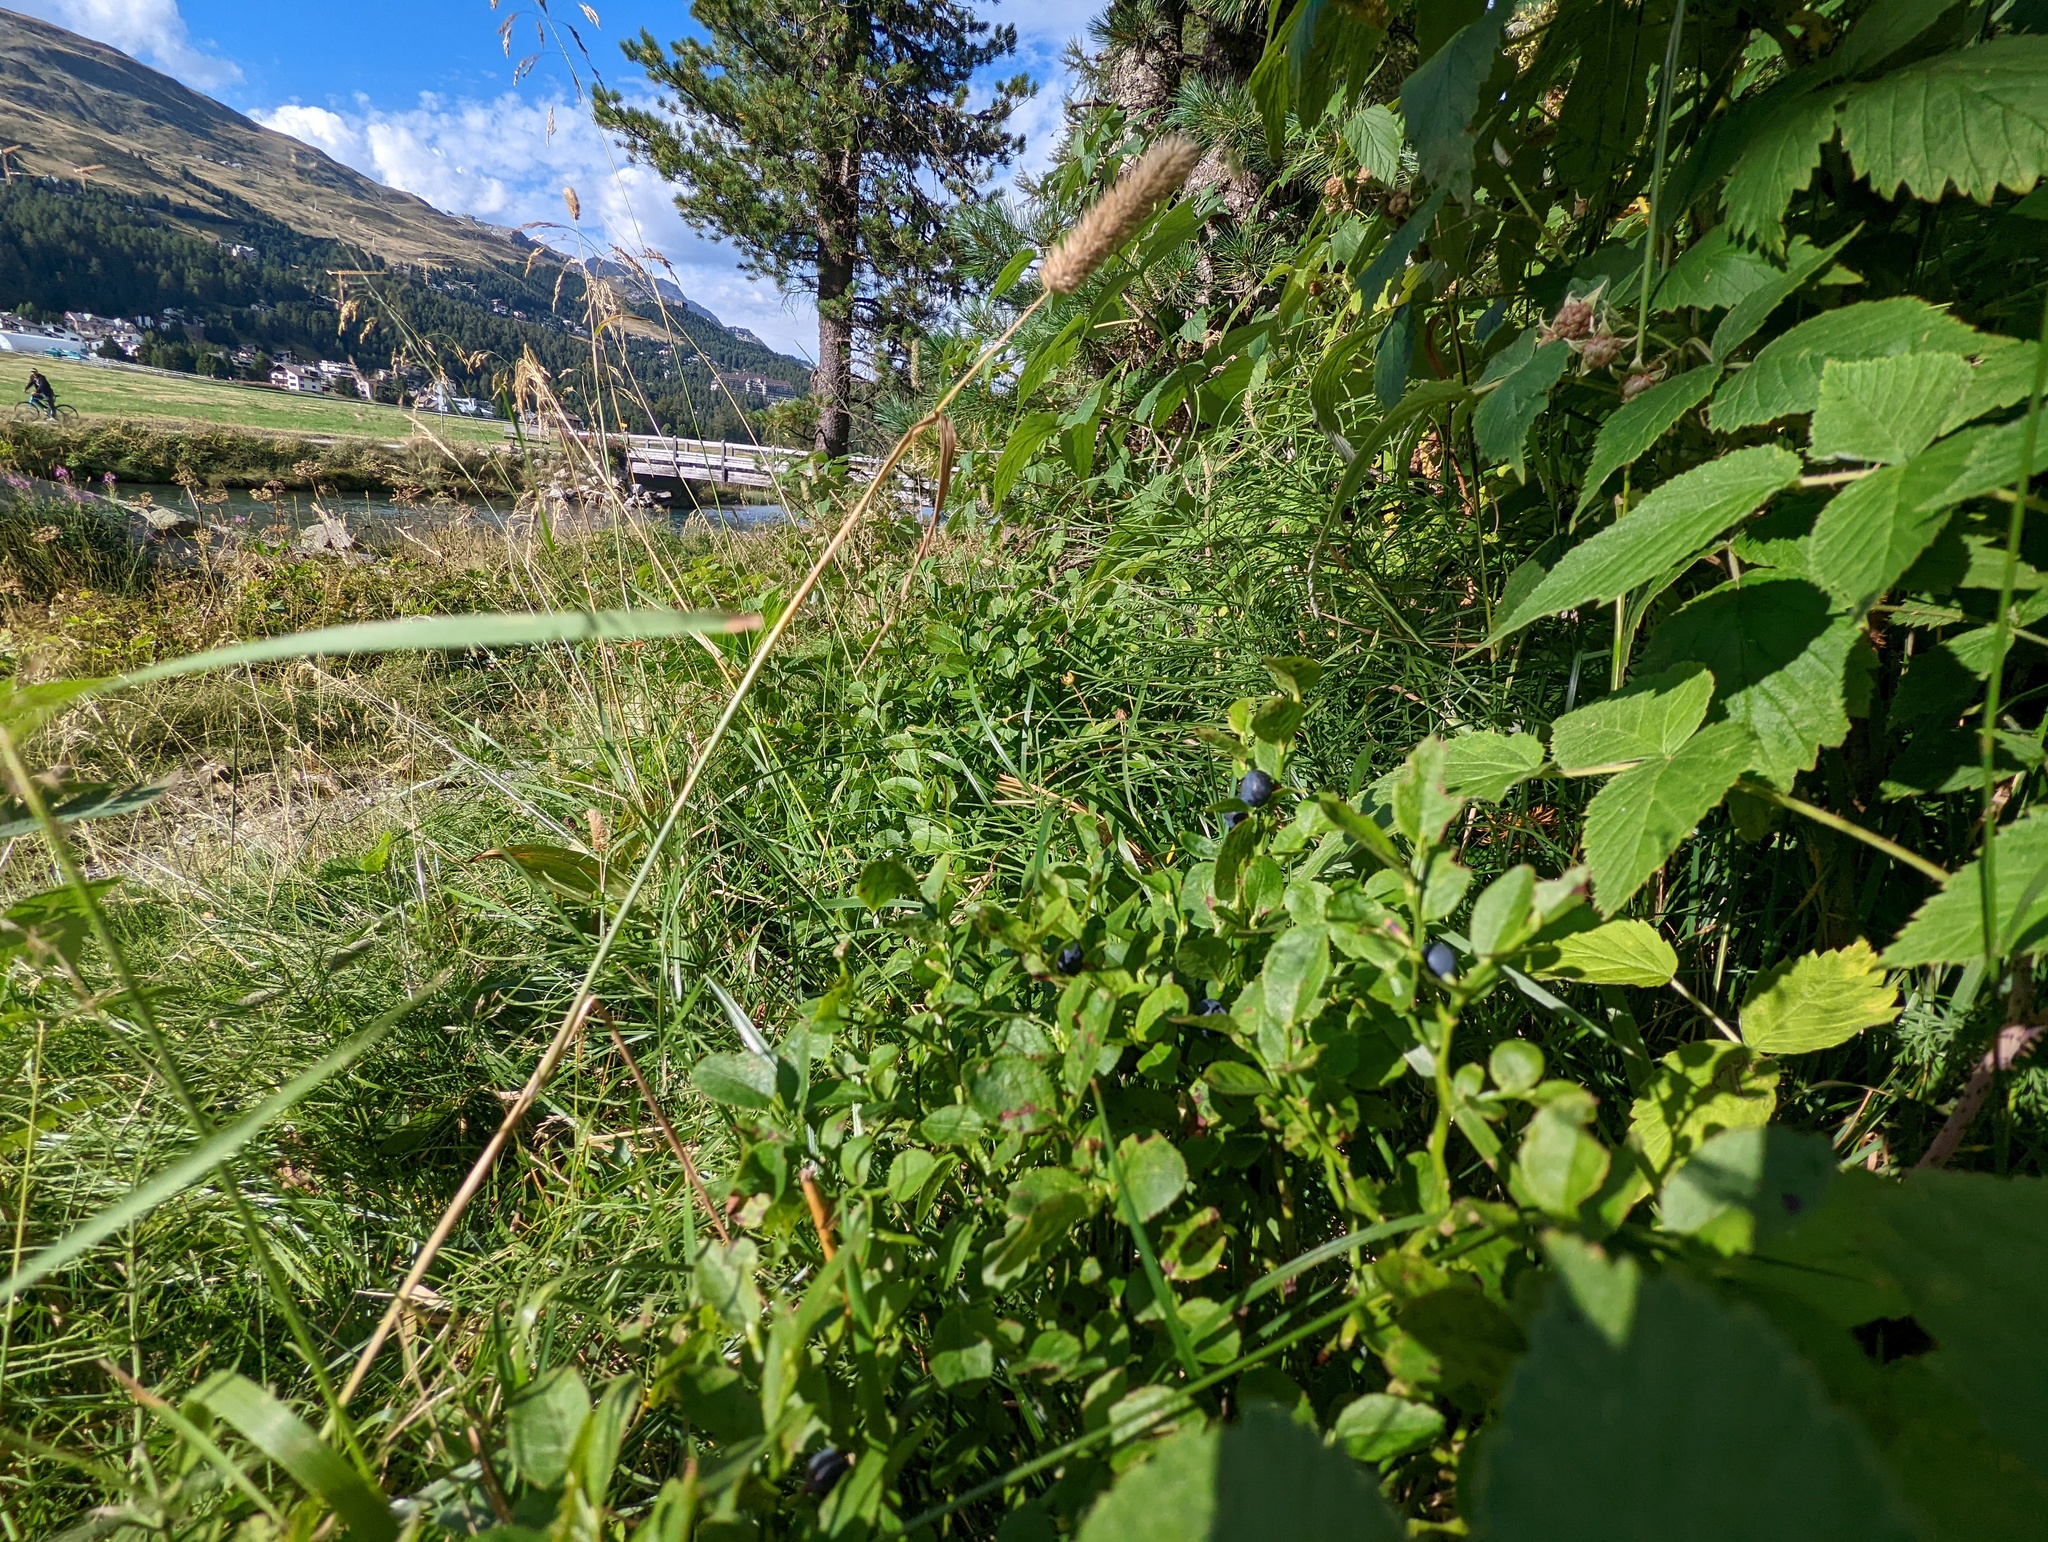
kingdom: Plantae
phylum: Tracheophyta
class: Magnoliopsida
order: Ericales
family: Ericaceae
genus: Vaccinium
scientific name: Vaccinium myrtillus
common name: Bilberry
